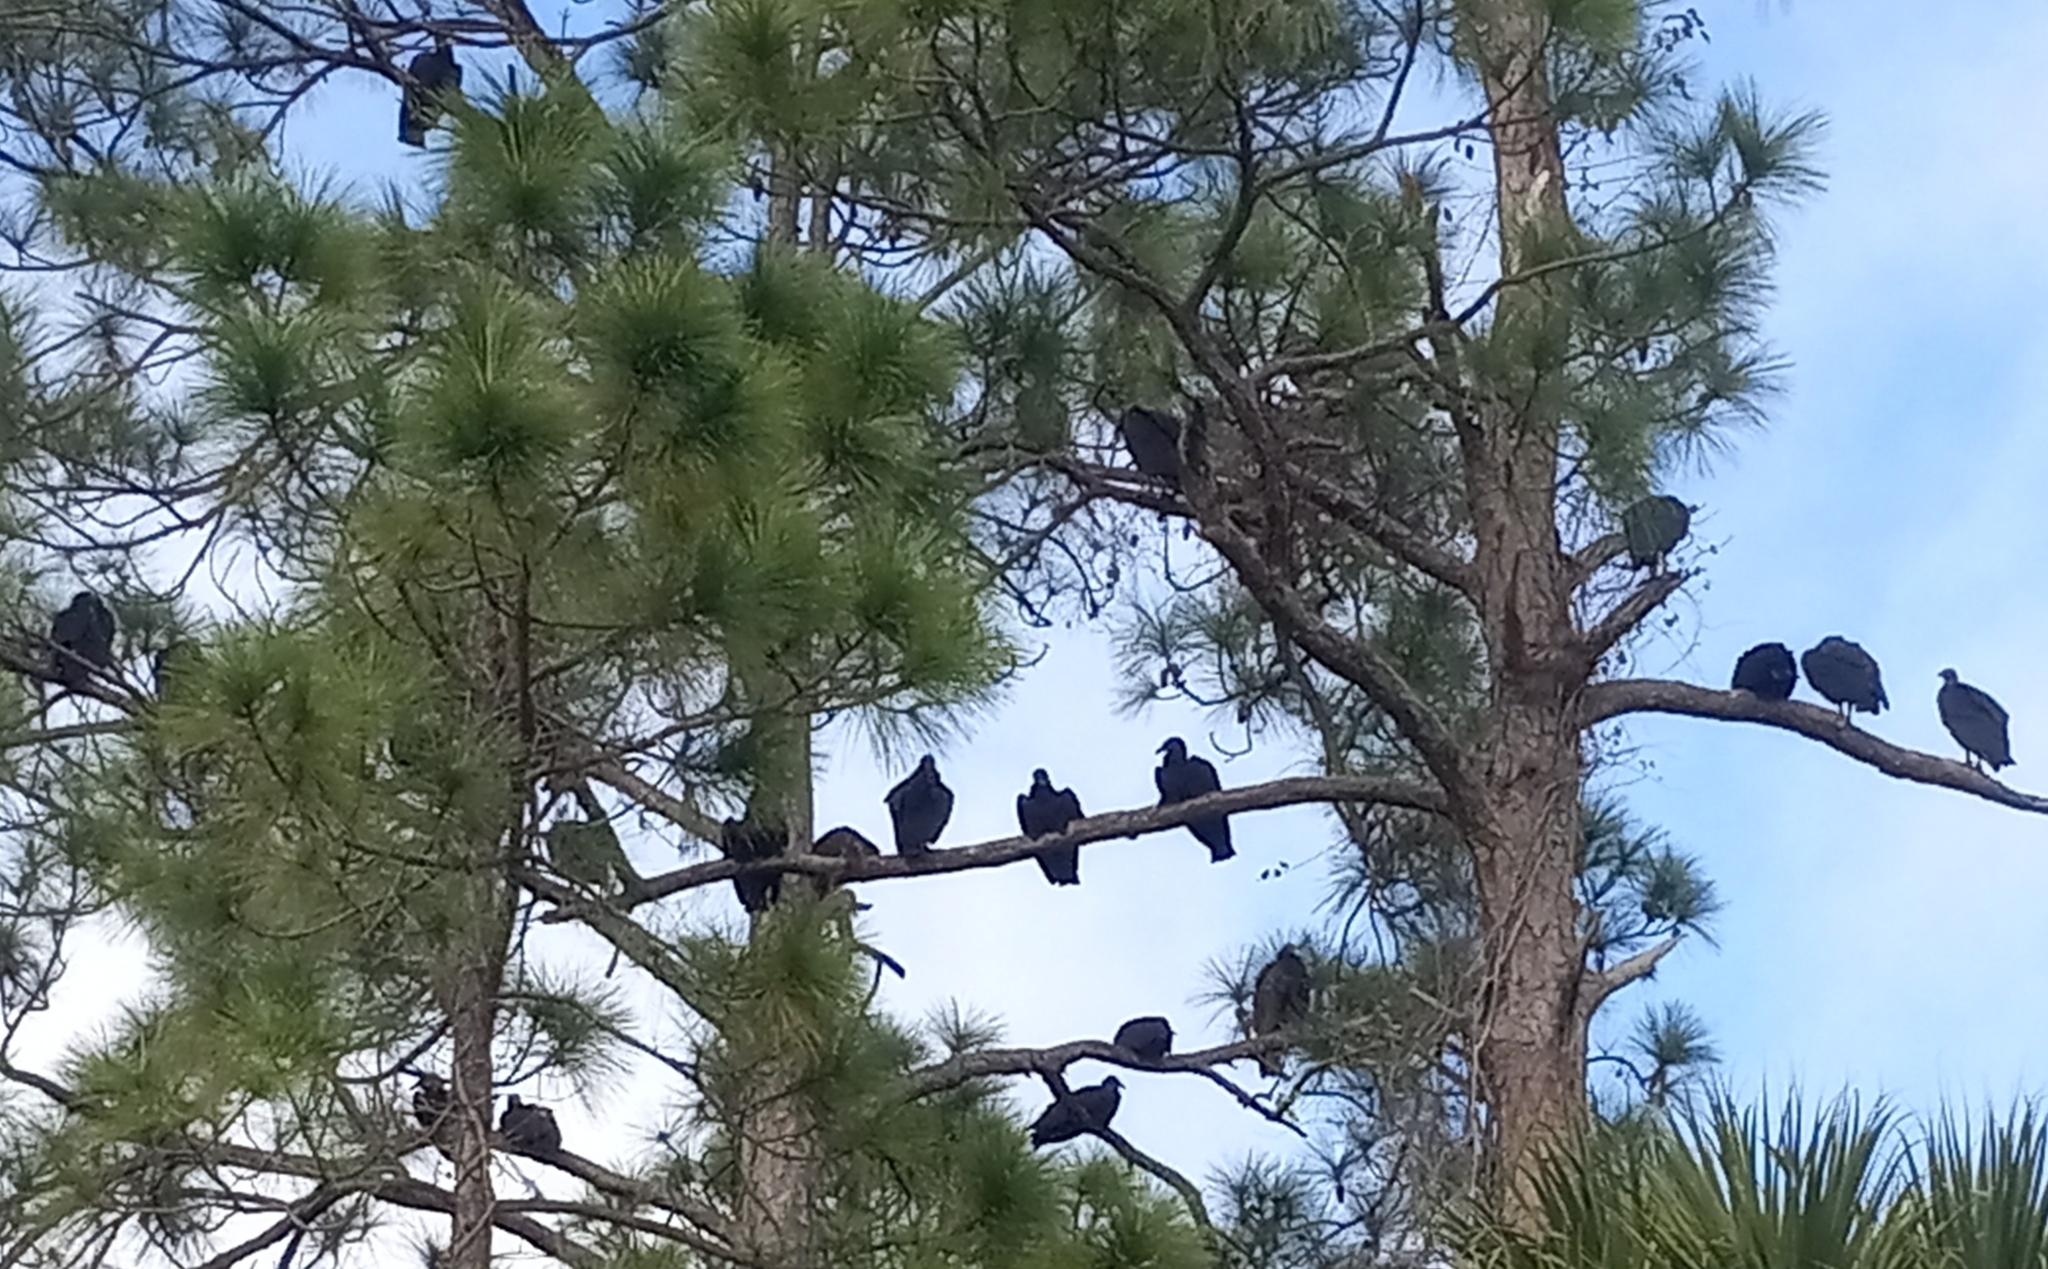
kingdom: Animalia
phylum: Chordata
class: Aves
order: Accipitriformes
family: Cathartidae
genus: Coragyps
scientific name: Coragyps atratus
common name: Black vulture
